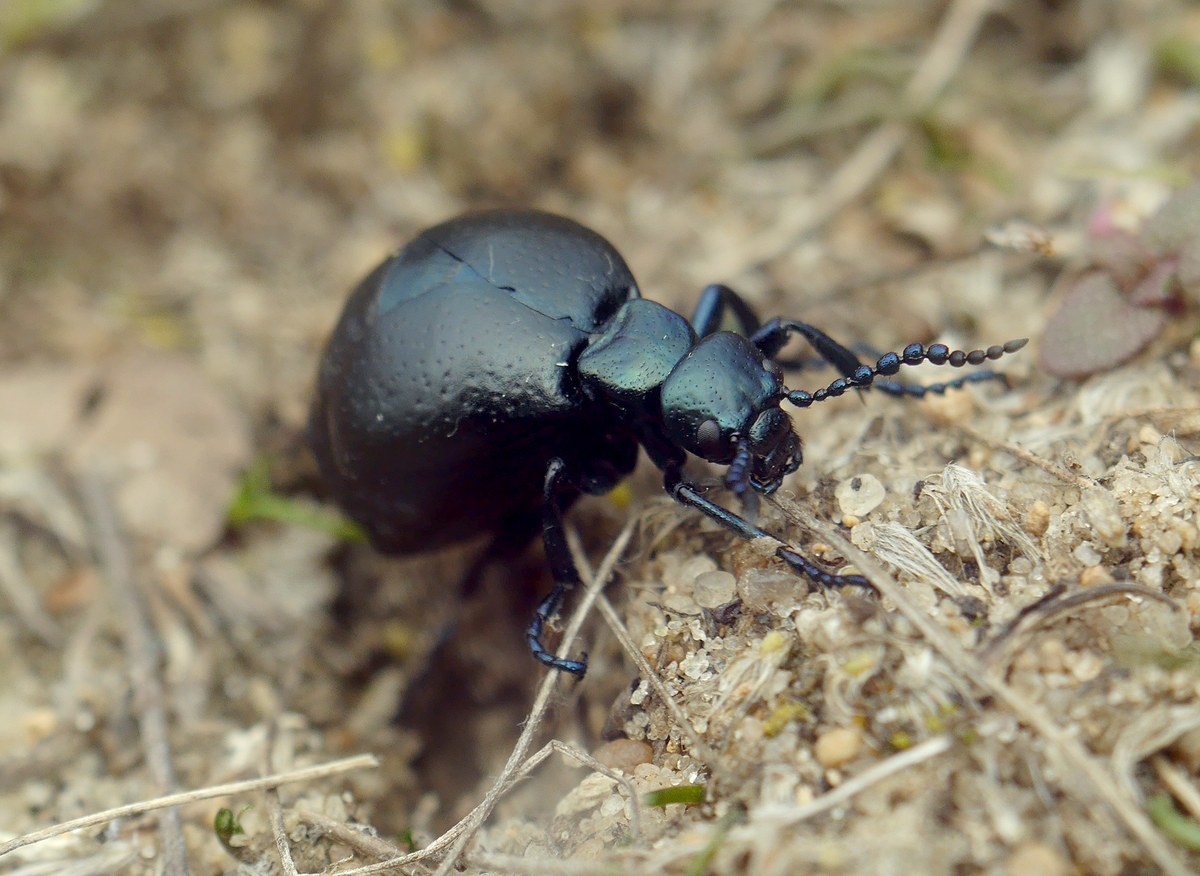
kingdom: Animalia
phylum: Arthropoda
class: Insecta
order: Coleoptera
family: Meloidae
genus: Meloe
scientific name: Meloe autumnalis
